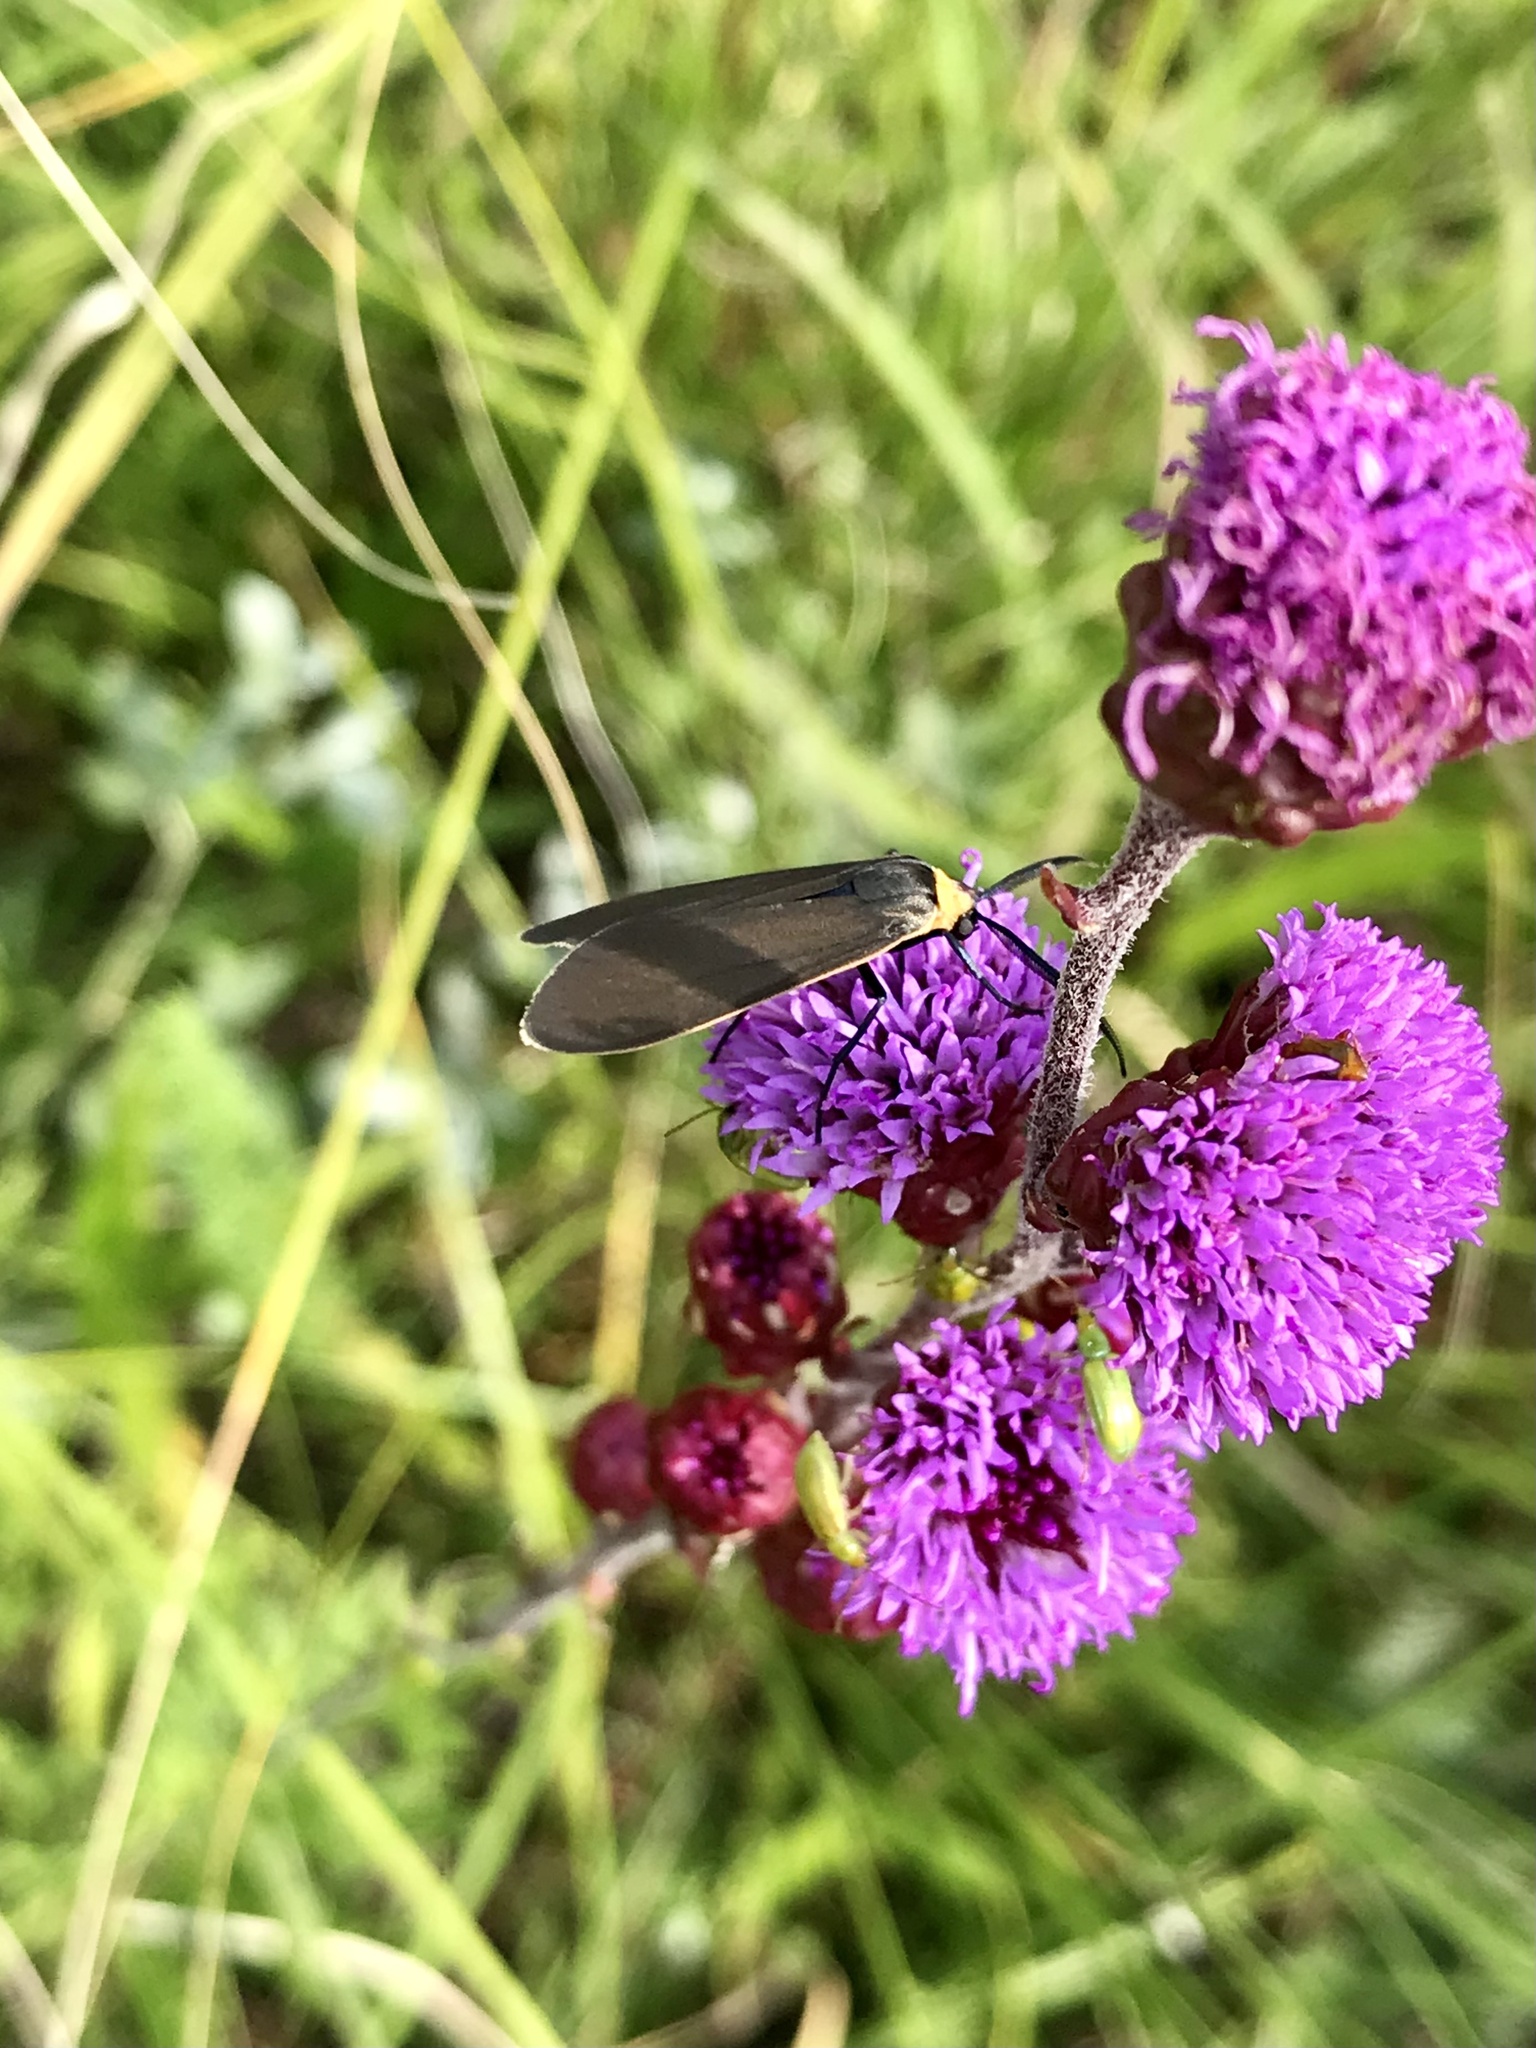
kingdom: Animalia
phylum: Arthropoda
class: Insecta
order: Lepidoptera
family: Erebidae
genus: Cisseps
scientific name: Cisseps fulvicollis
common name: Yellow-collared scape moth
